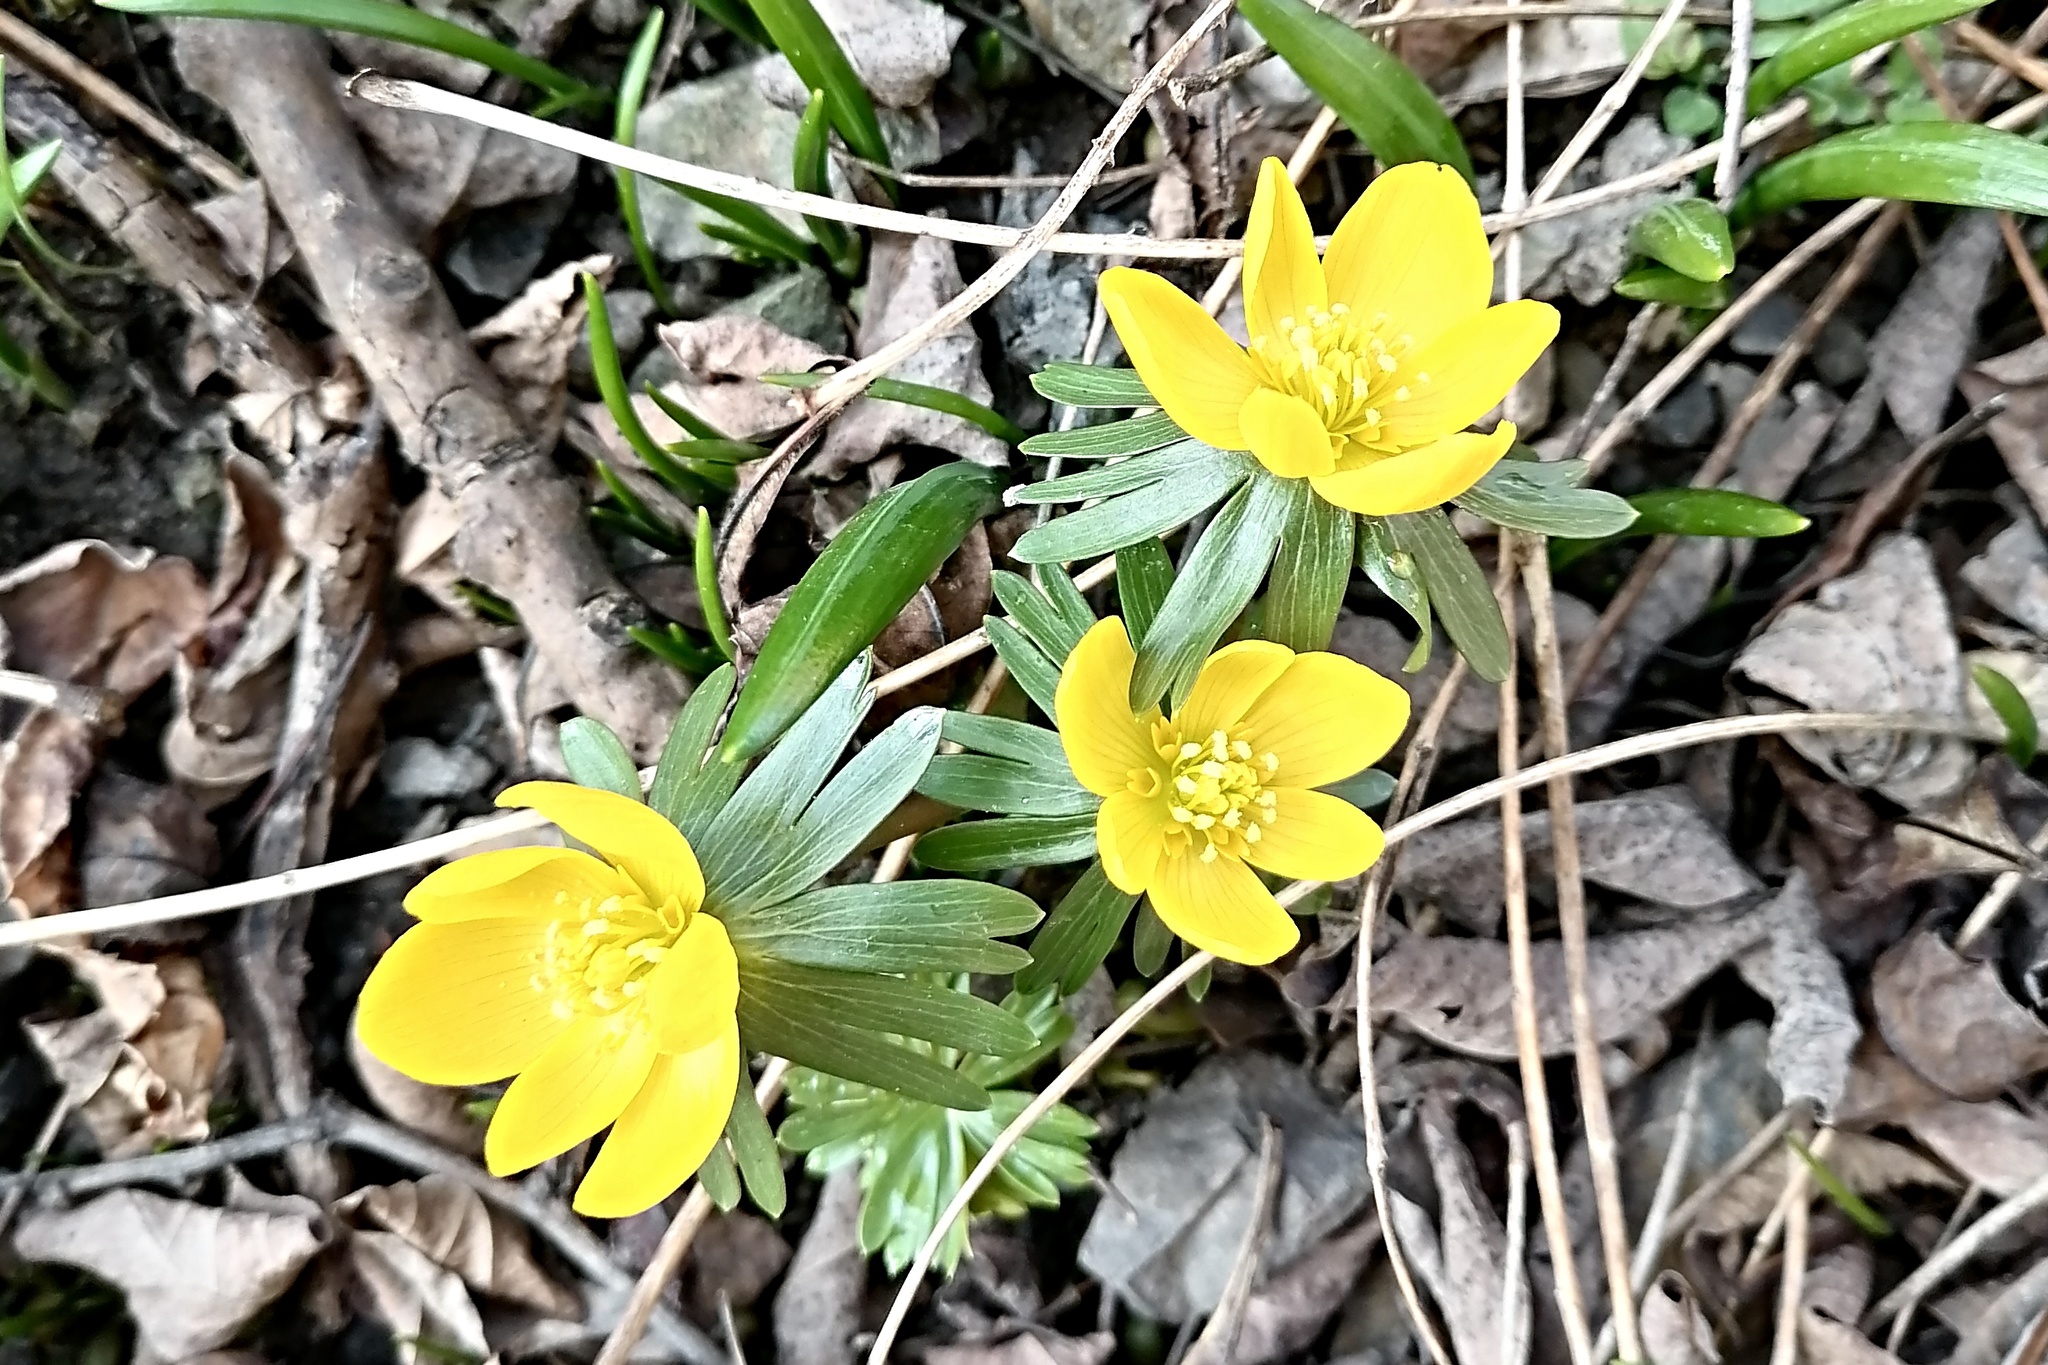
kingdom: Plantae
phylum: Tracheophyta
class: Magnoliopsida
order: Ranunculales
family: Ranunculaceae
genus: Eranthis
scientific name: Eranthis hyemalis
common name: Winter aconite
